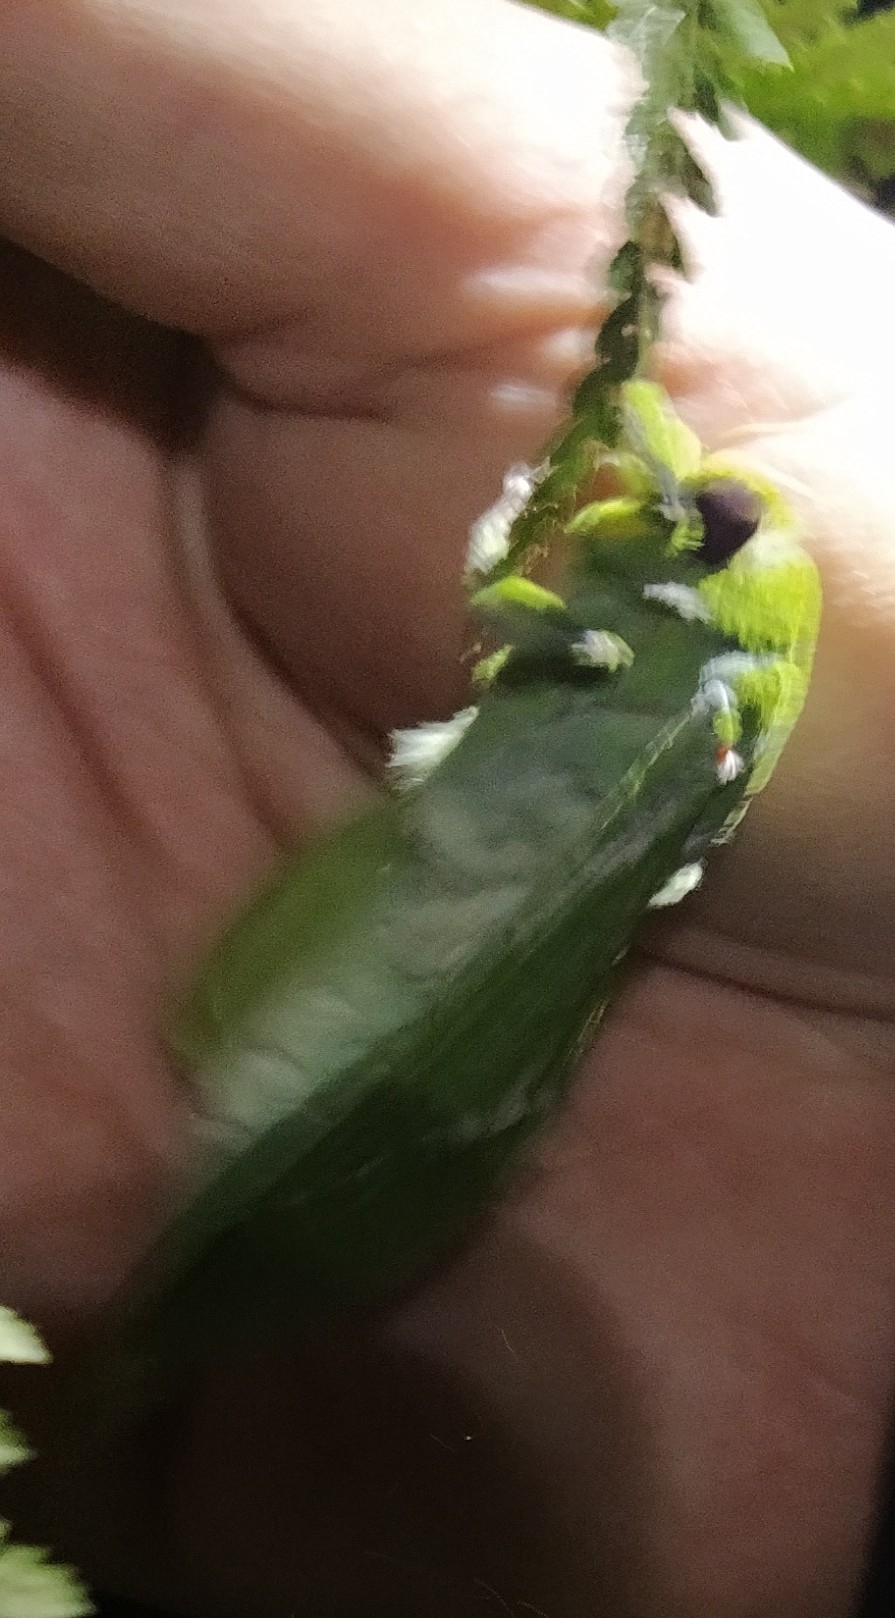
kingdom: Animalia
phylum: Arthropoda
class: Insecta
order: Lepidoptera
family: Hepialidae
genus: Aenetus
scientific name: Aenetus virescens
